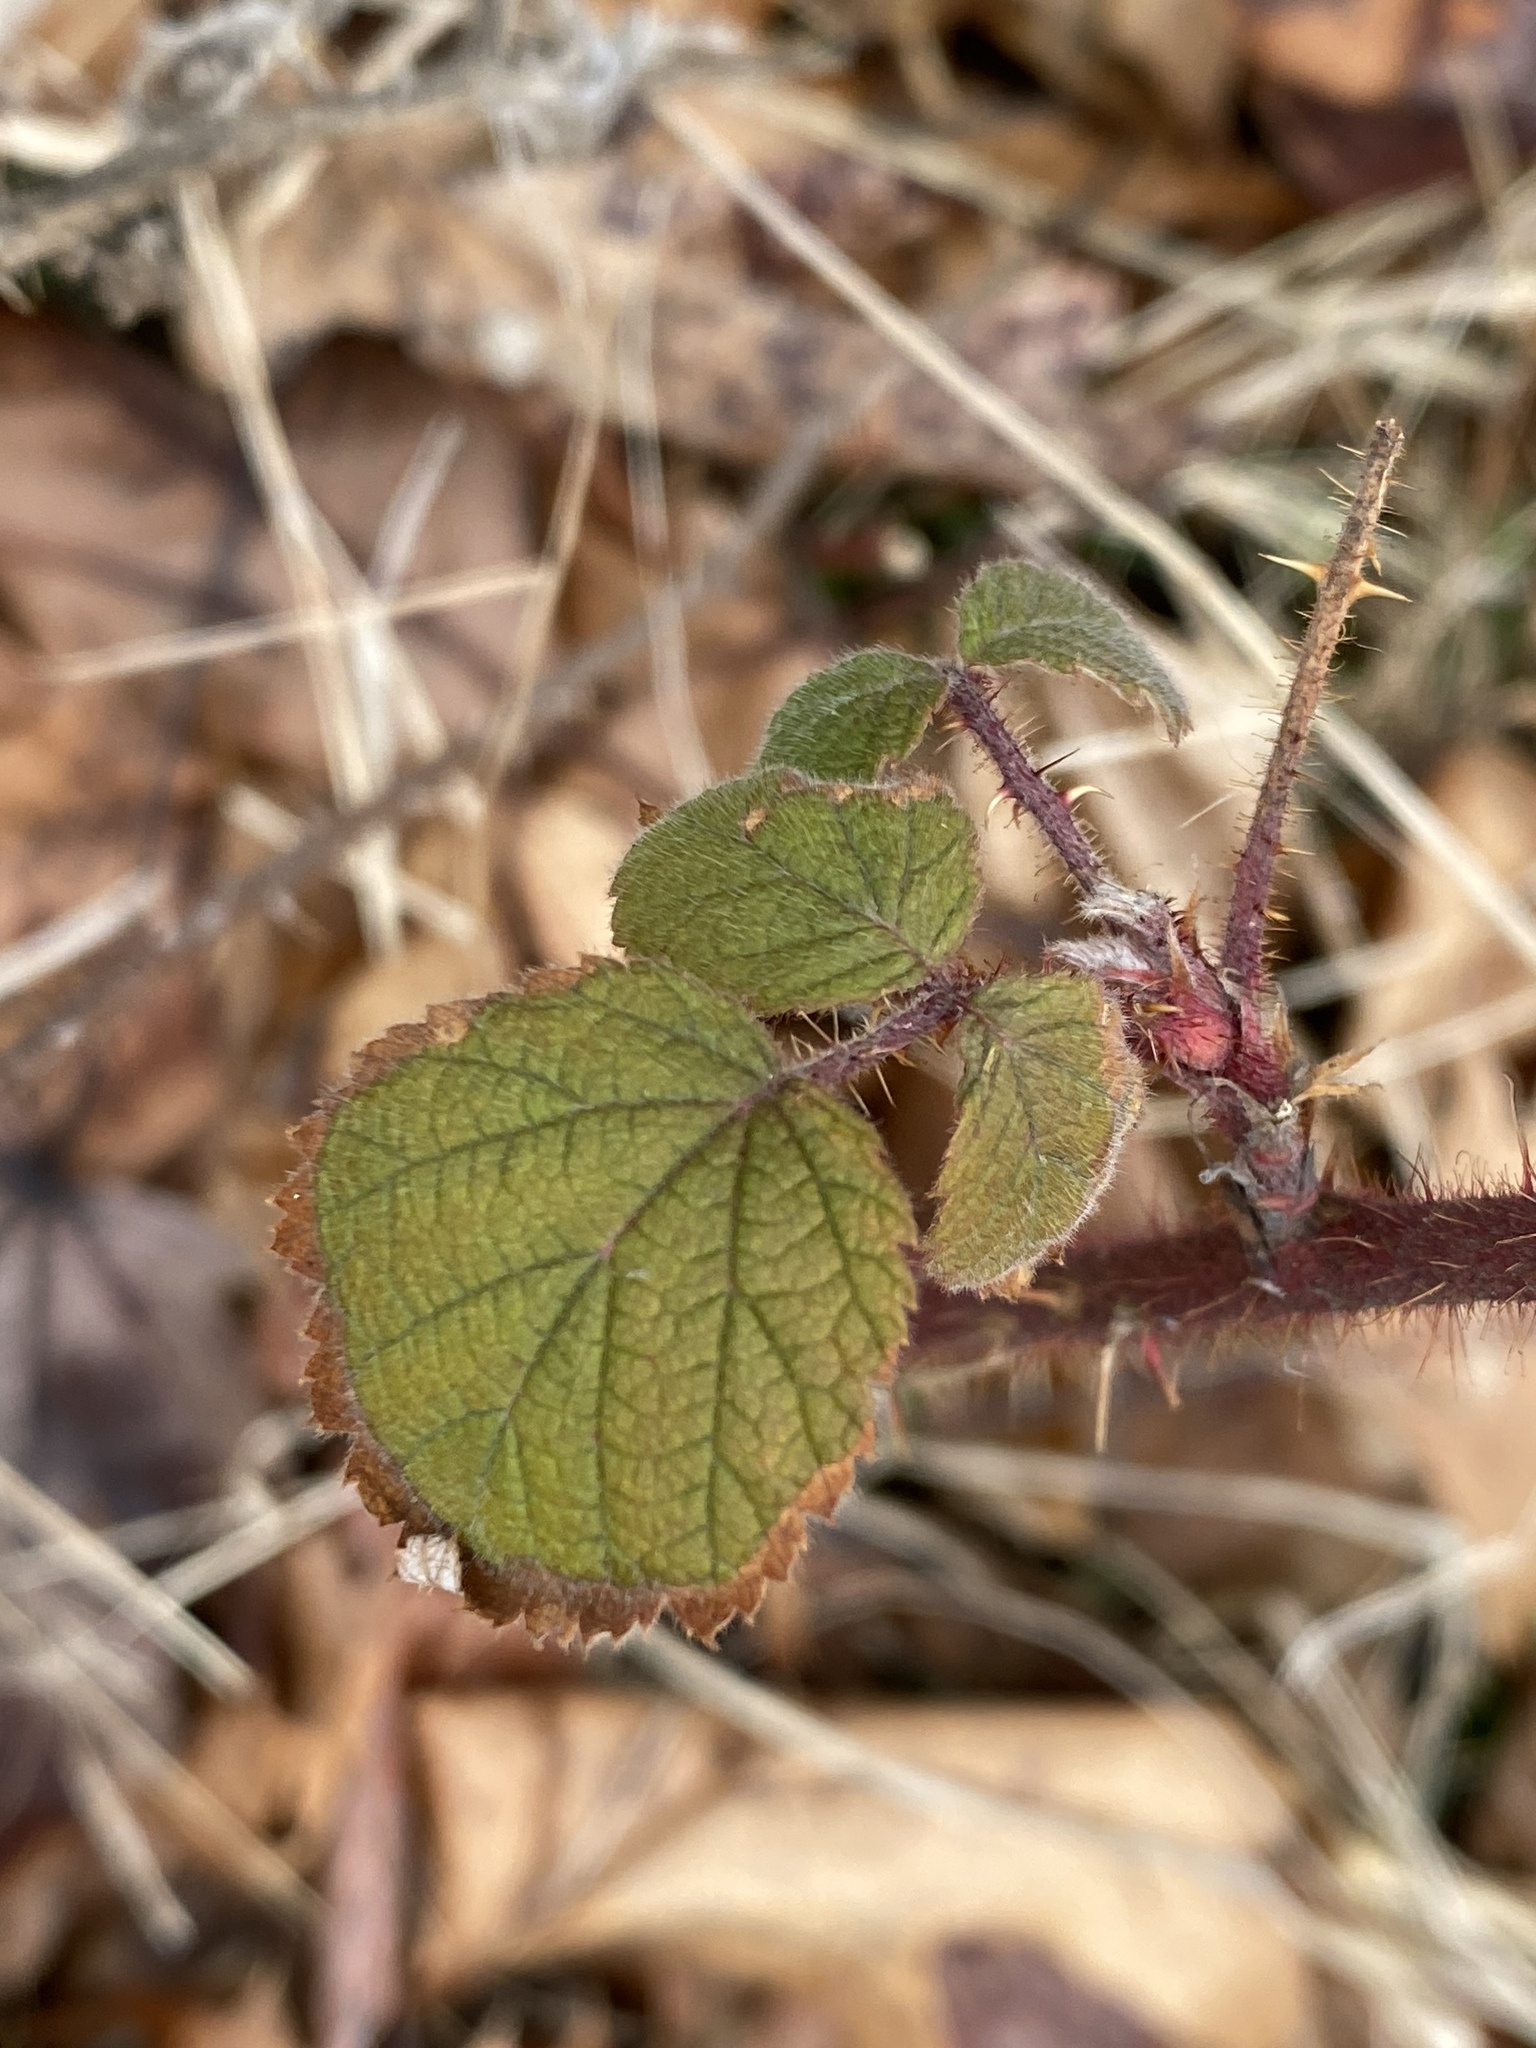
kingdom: Plantae
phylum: Tracheophyta
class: Magnoliopsida
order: Rosales
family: Rosaceae
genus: Rubus
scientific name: Rubus phoenicolasius
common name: Japanese wineberry
